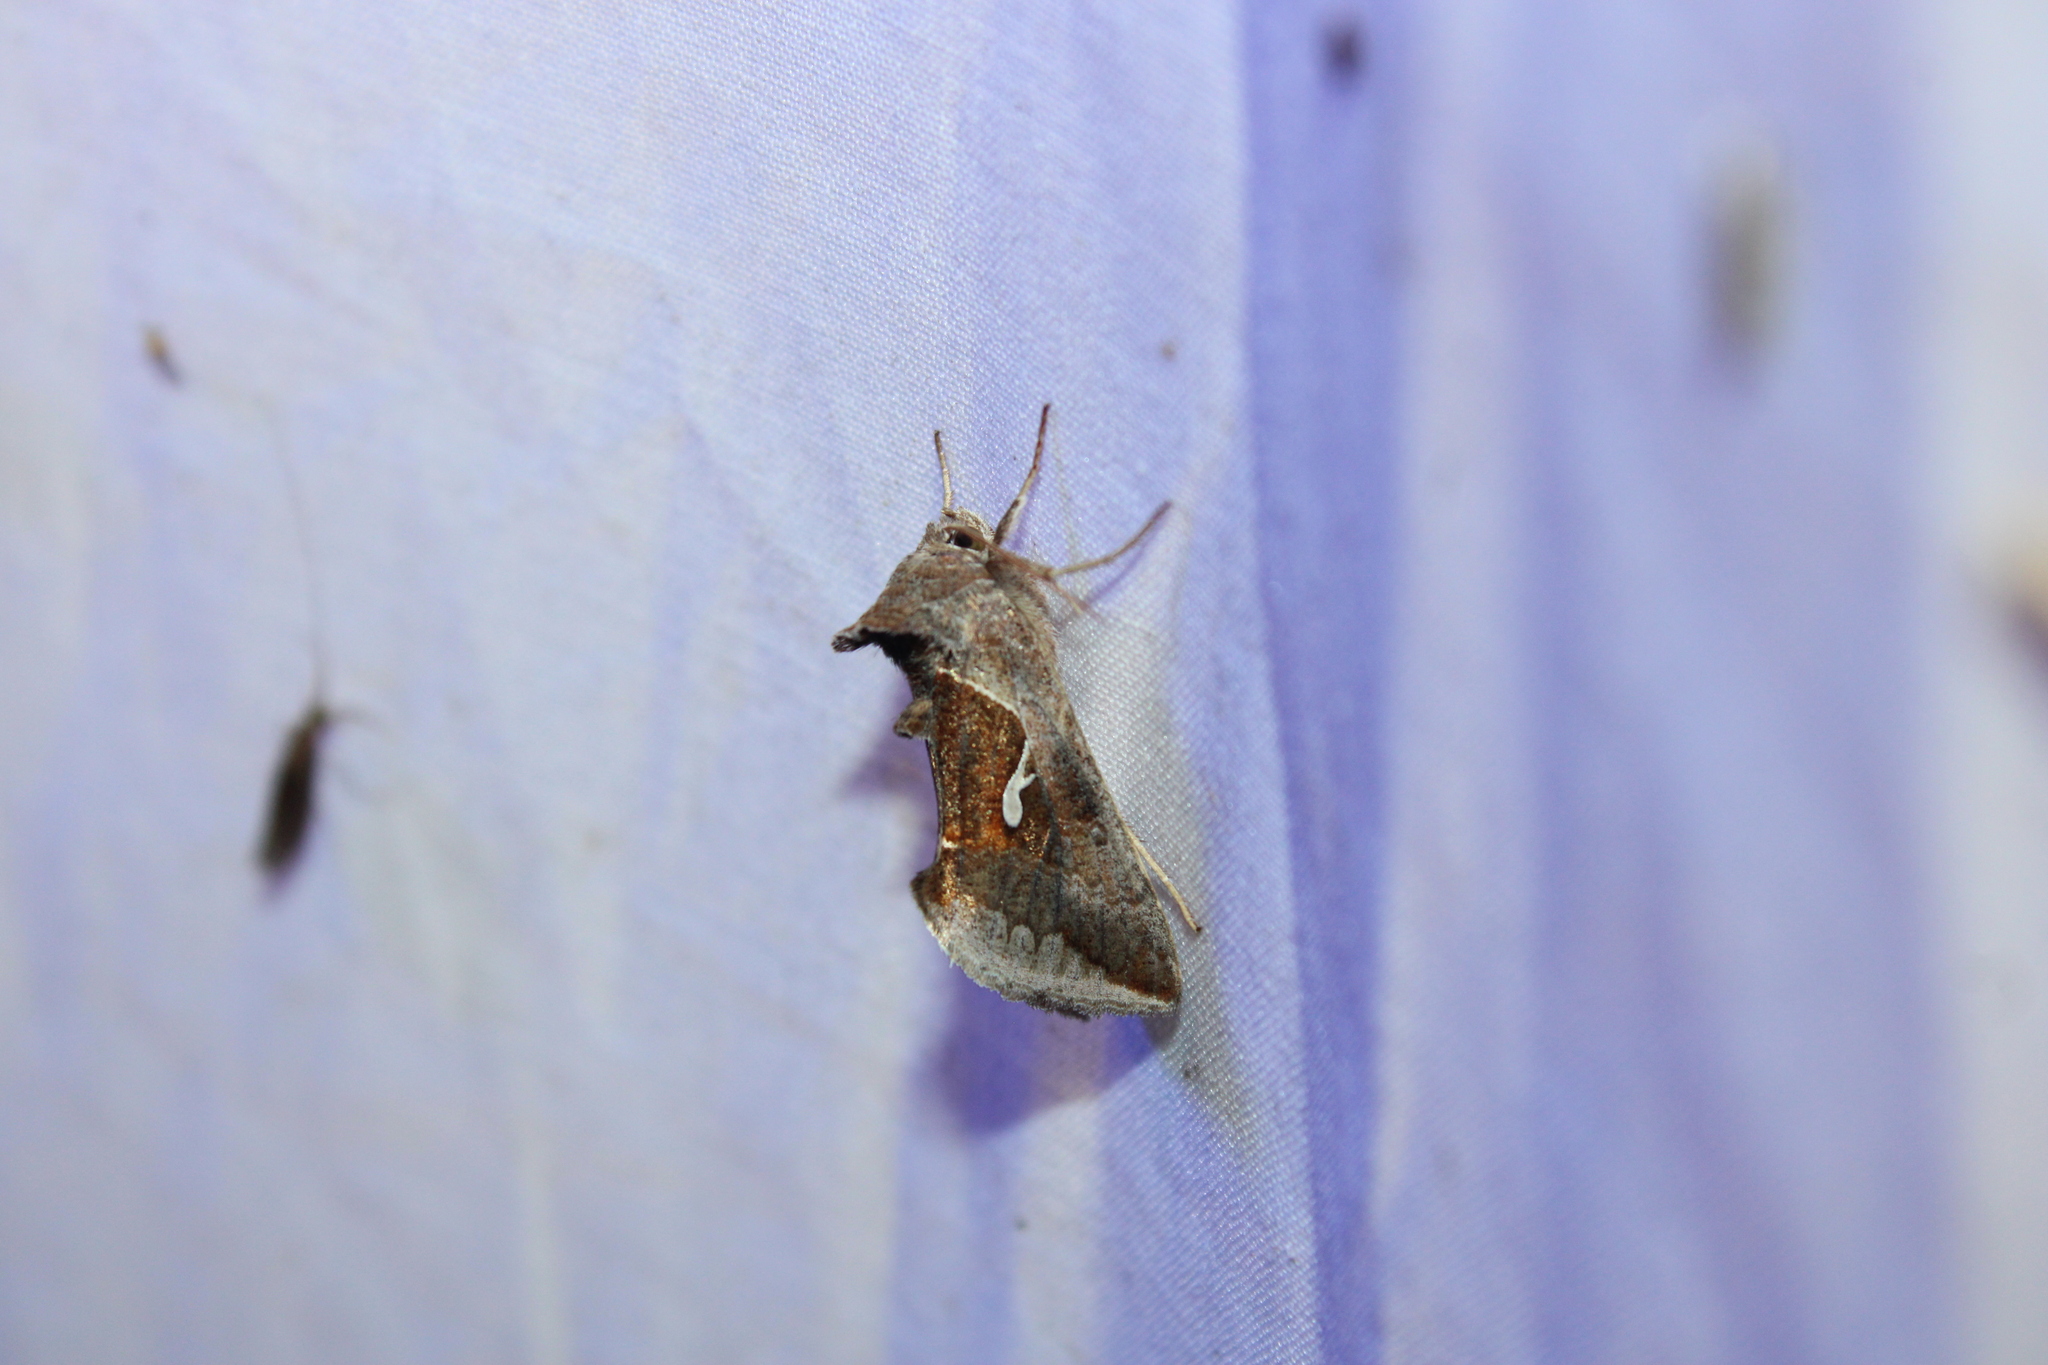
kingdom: Animalia
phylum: Arthropoda
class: Insecta
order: Lepidoptera
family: Noctuidae
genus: Anagrapha
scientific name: Anagrapha falcifera
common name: Celery looper
